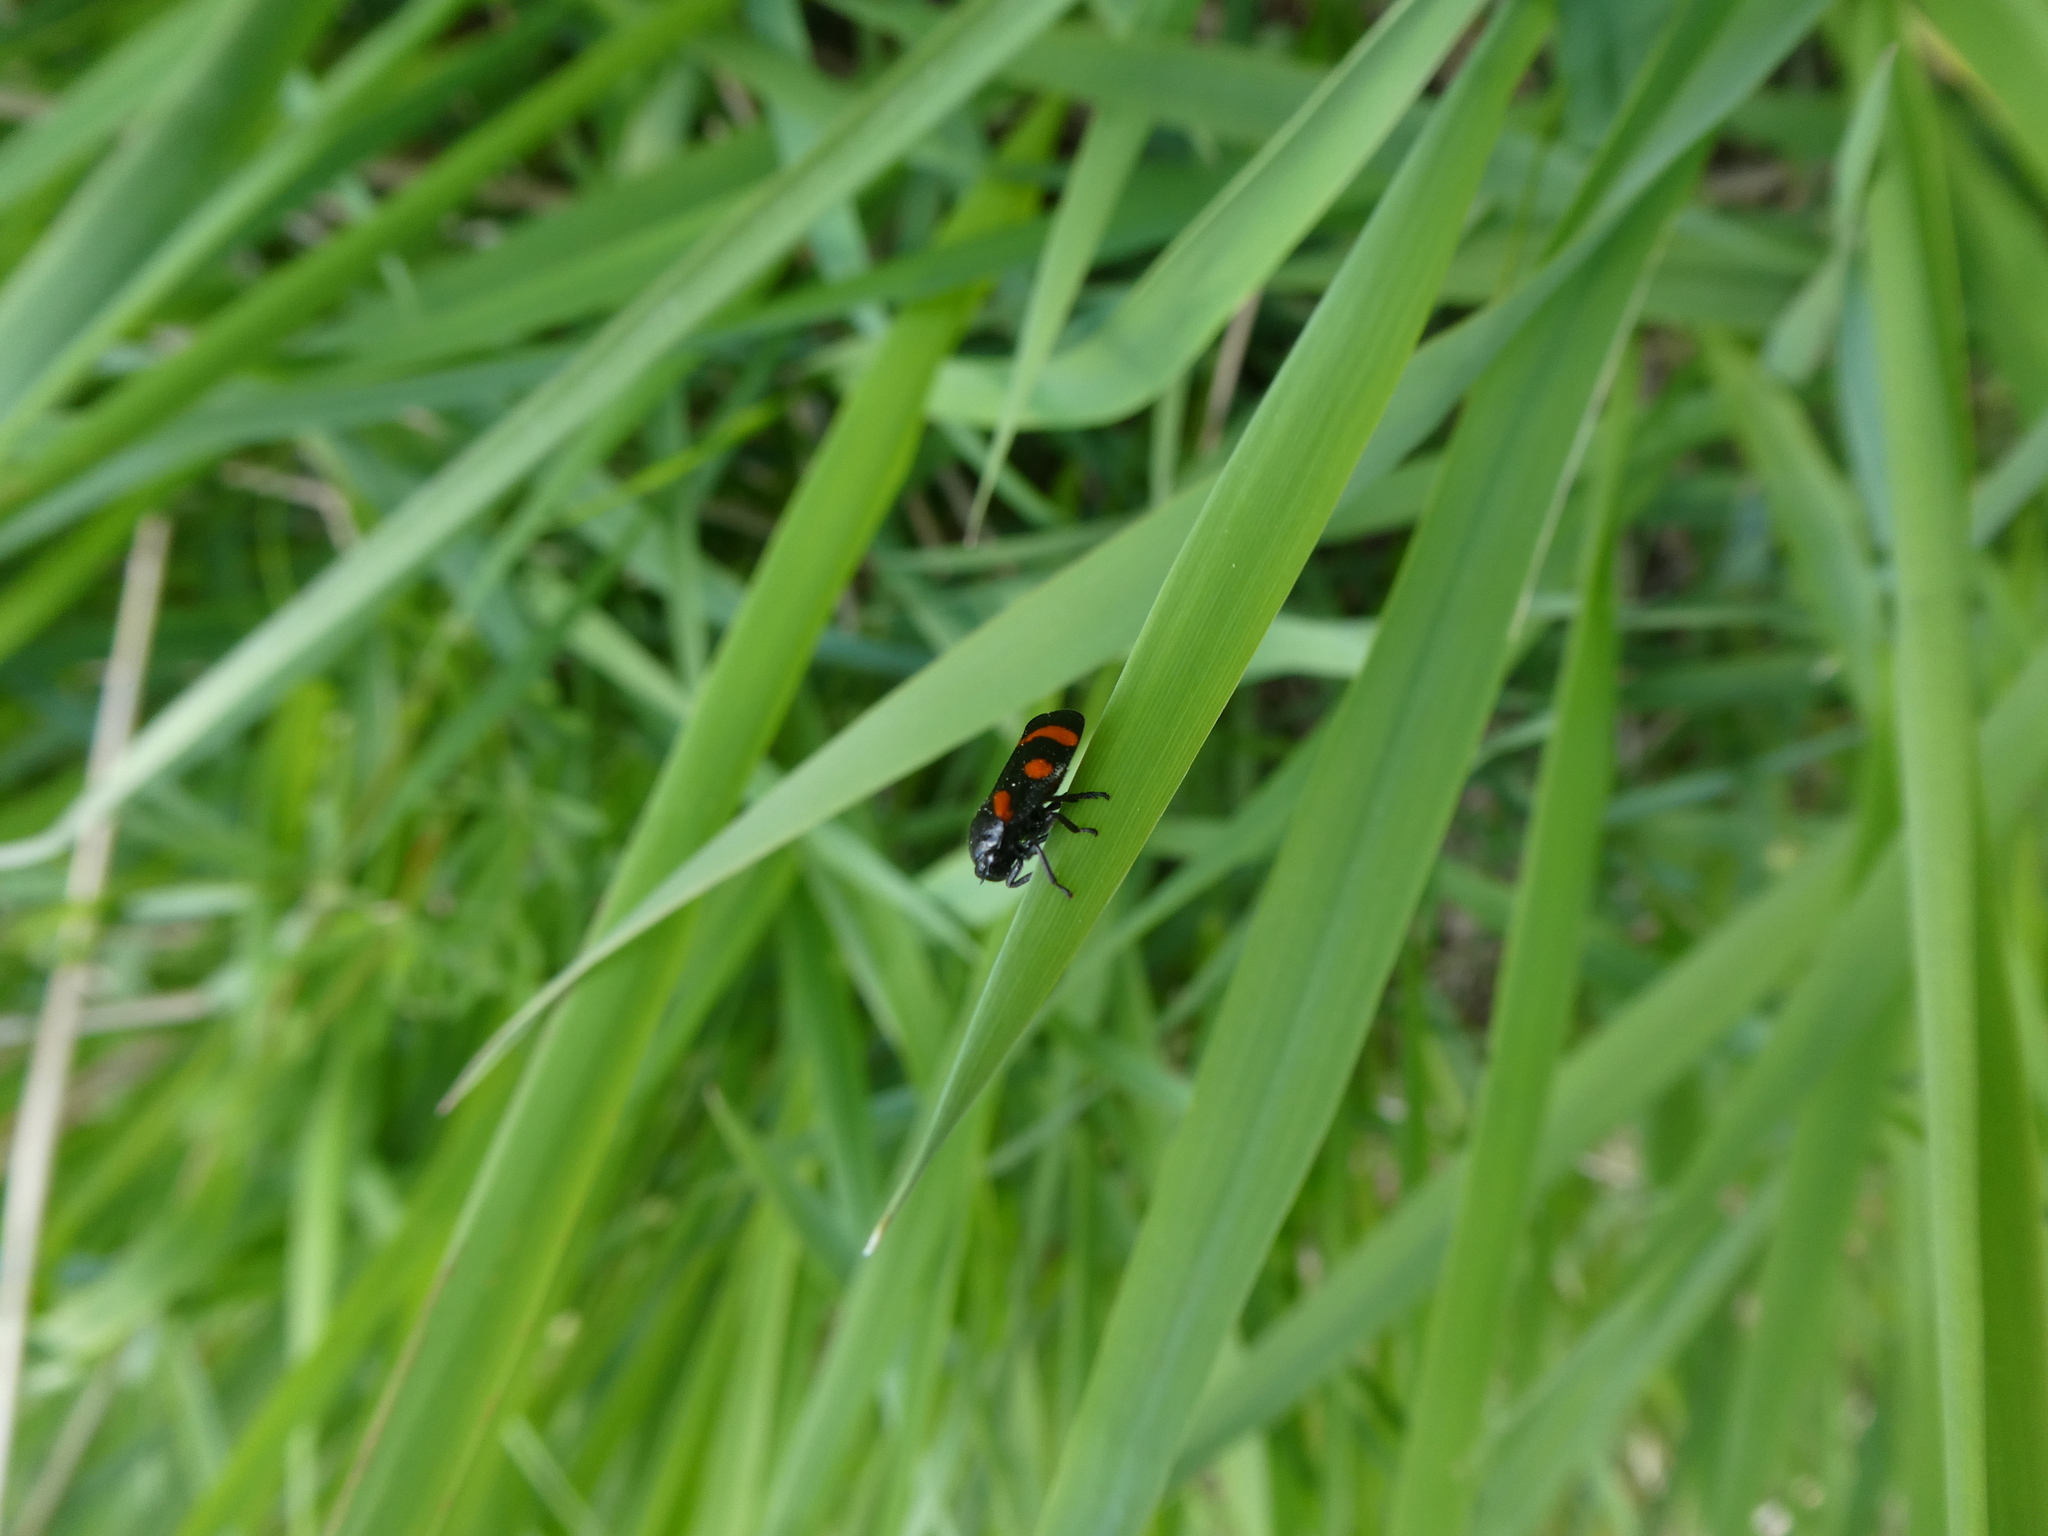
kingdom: Animalia
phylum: Arthropoda
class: Insecta
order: Hemiptera
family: Cercopidae
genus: Cercopis
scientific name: Cercopis arcuata
